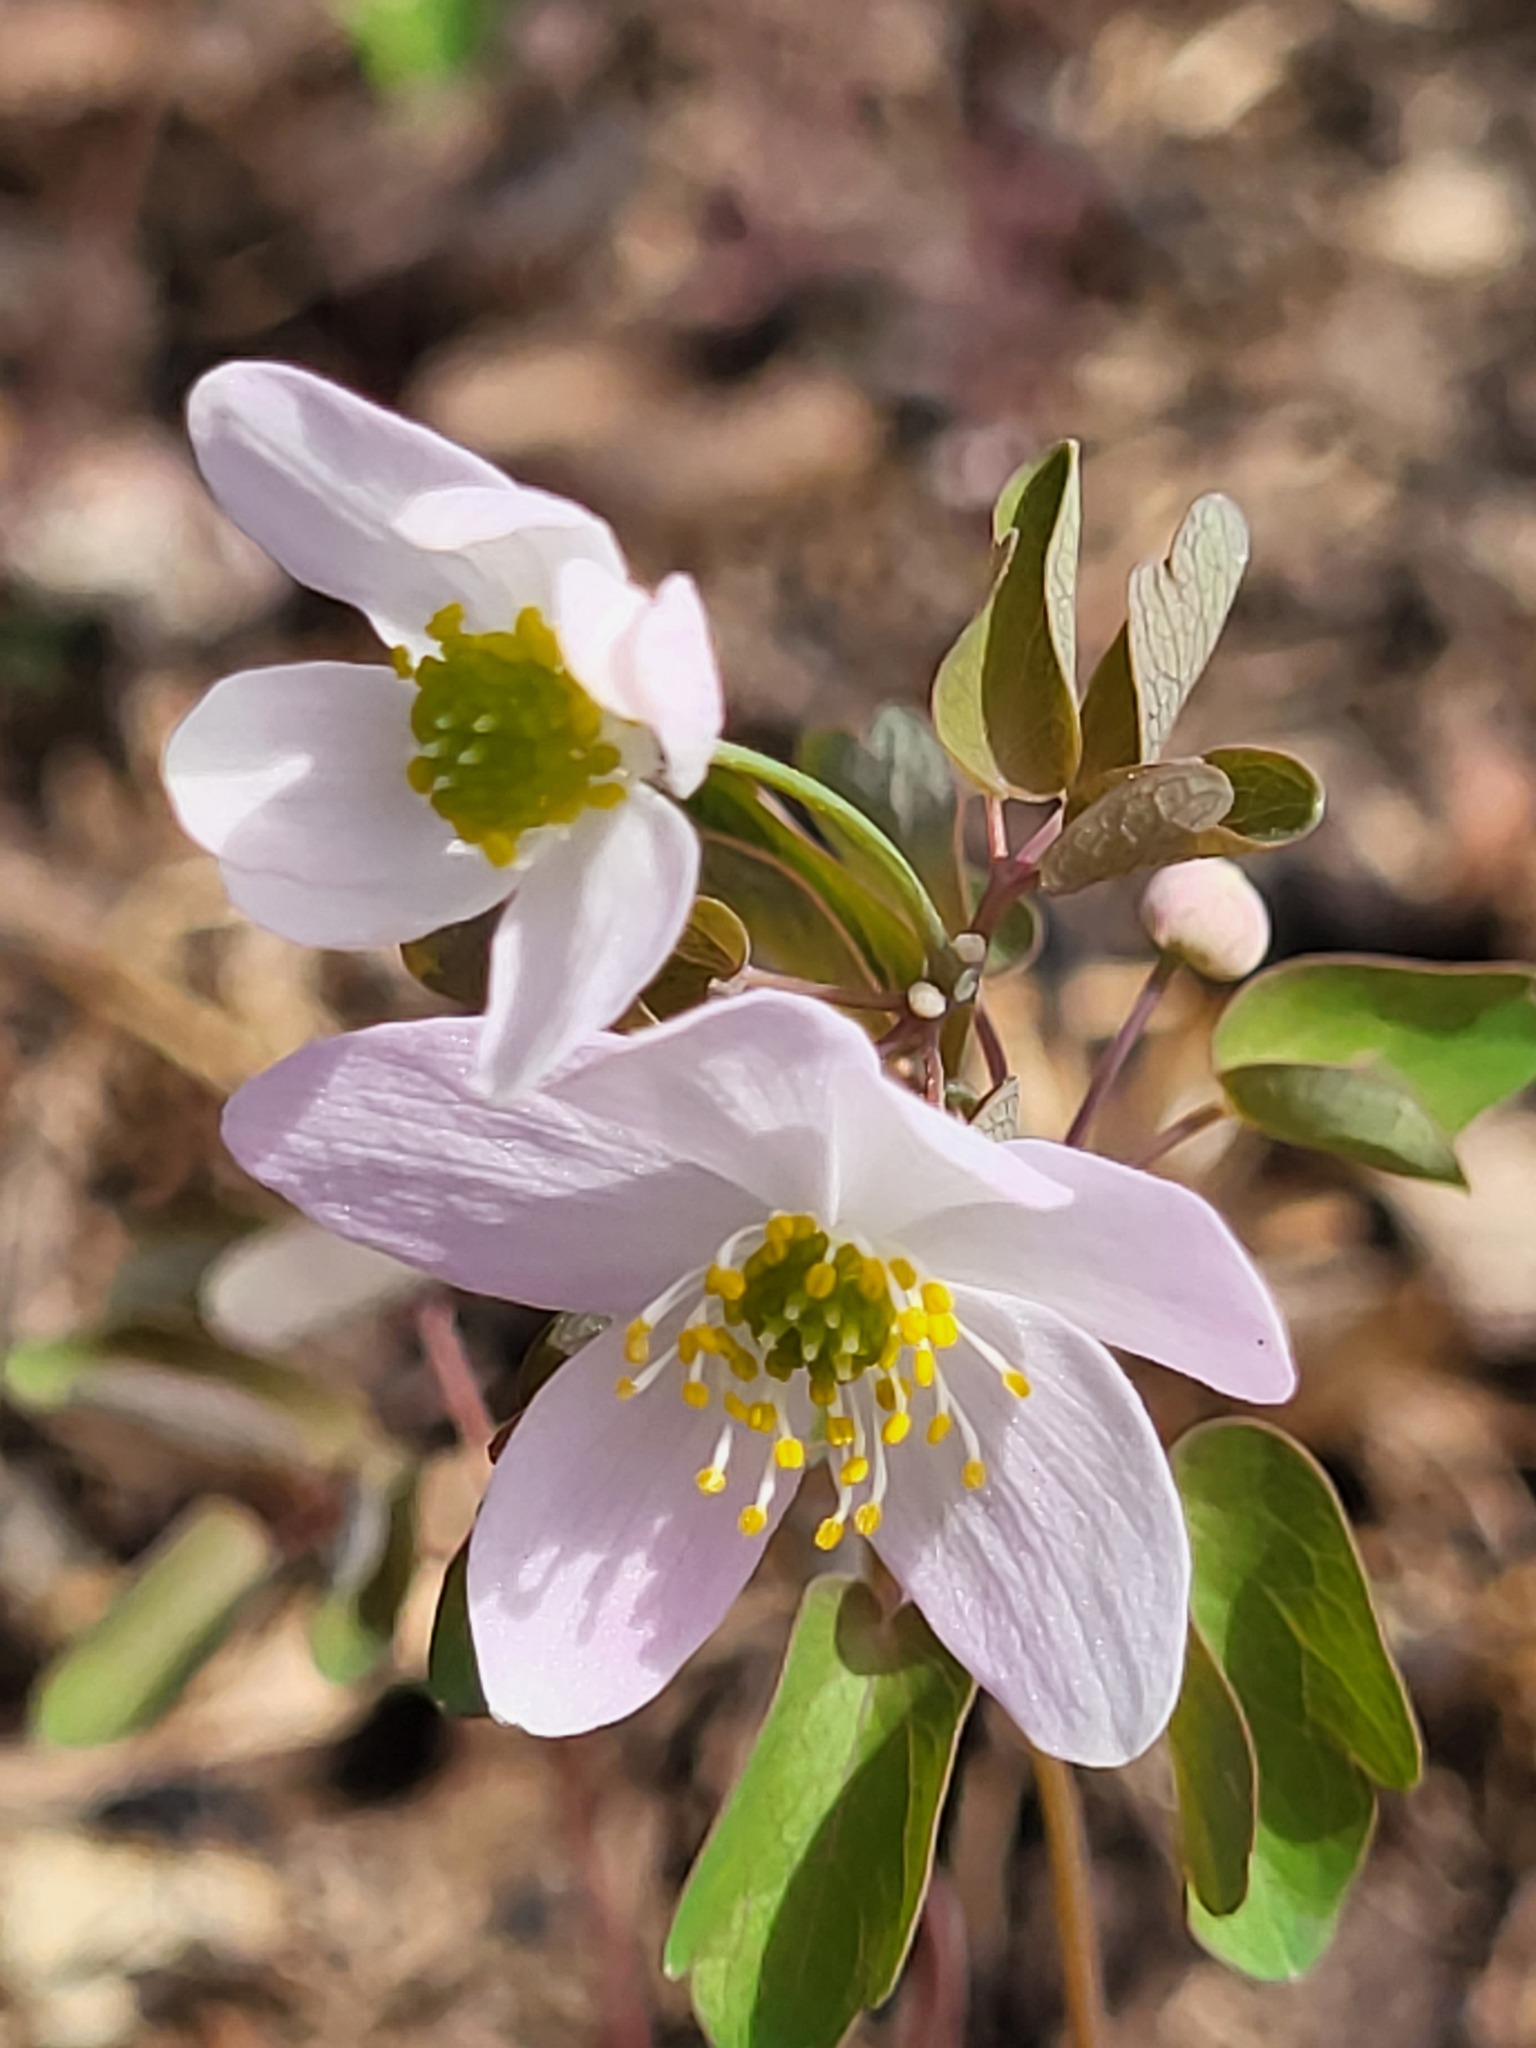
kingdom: Plantae
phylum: Tracheophyta
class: Magnoliopsida
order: Ranunculales
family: Ranunculaceae
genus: Thalictrum
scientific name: Thalictrum thalictroides
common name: Rue-anemone
